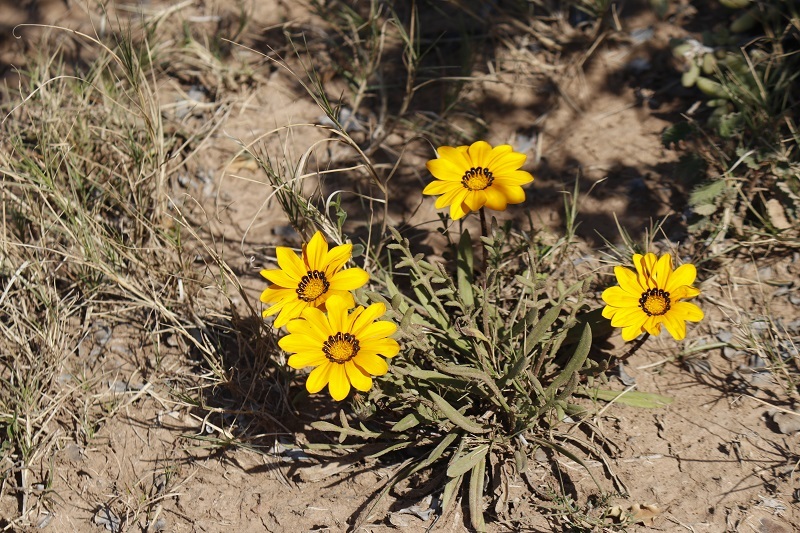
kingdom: Plantae
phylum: Tracheophyta
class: Magnoliopsida
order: Asterales
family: Asteraceae
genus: Gazania
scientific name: Gazania krebsiana
